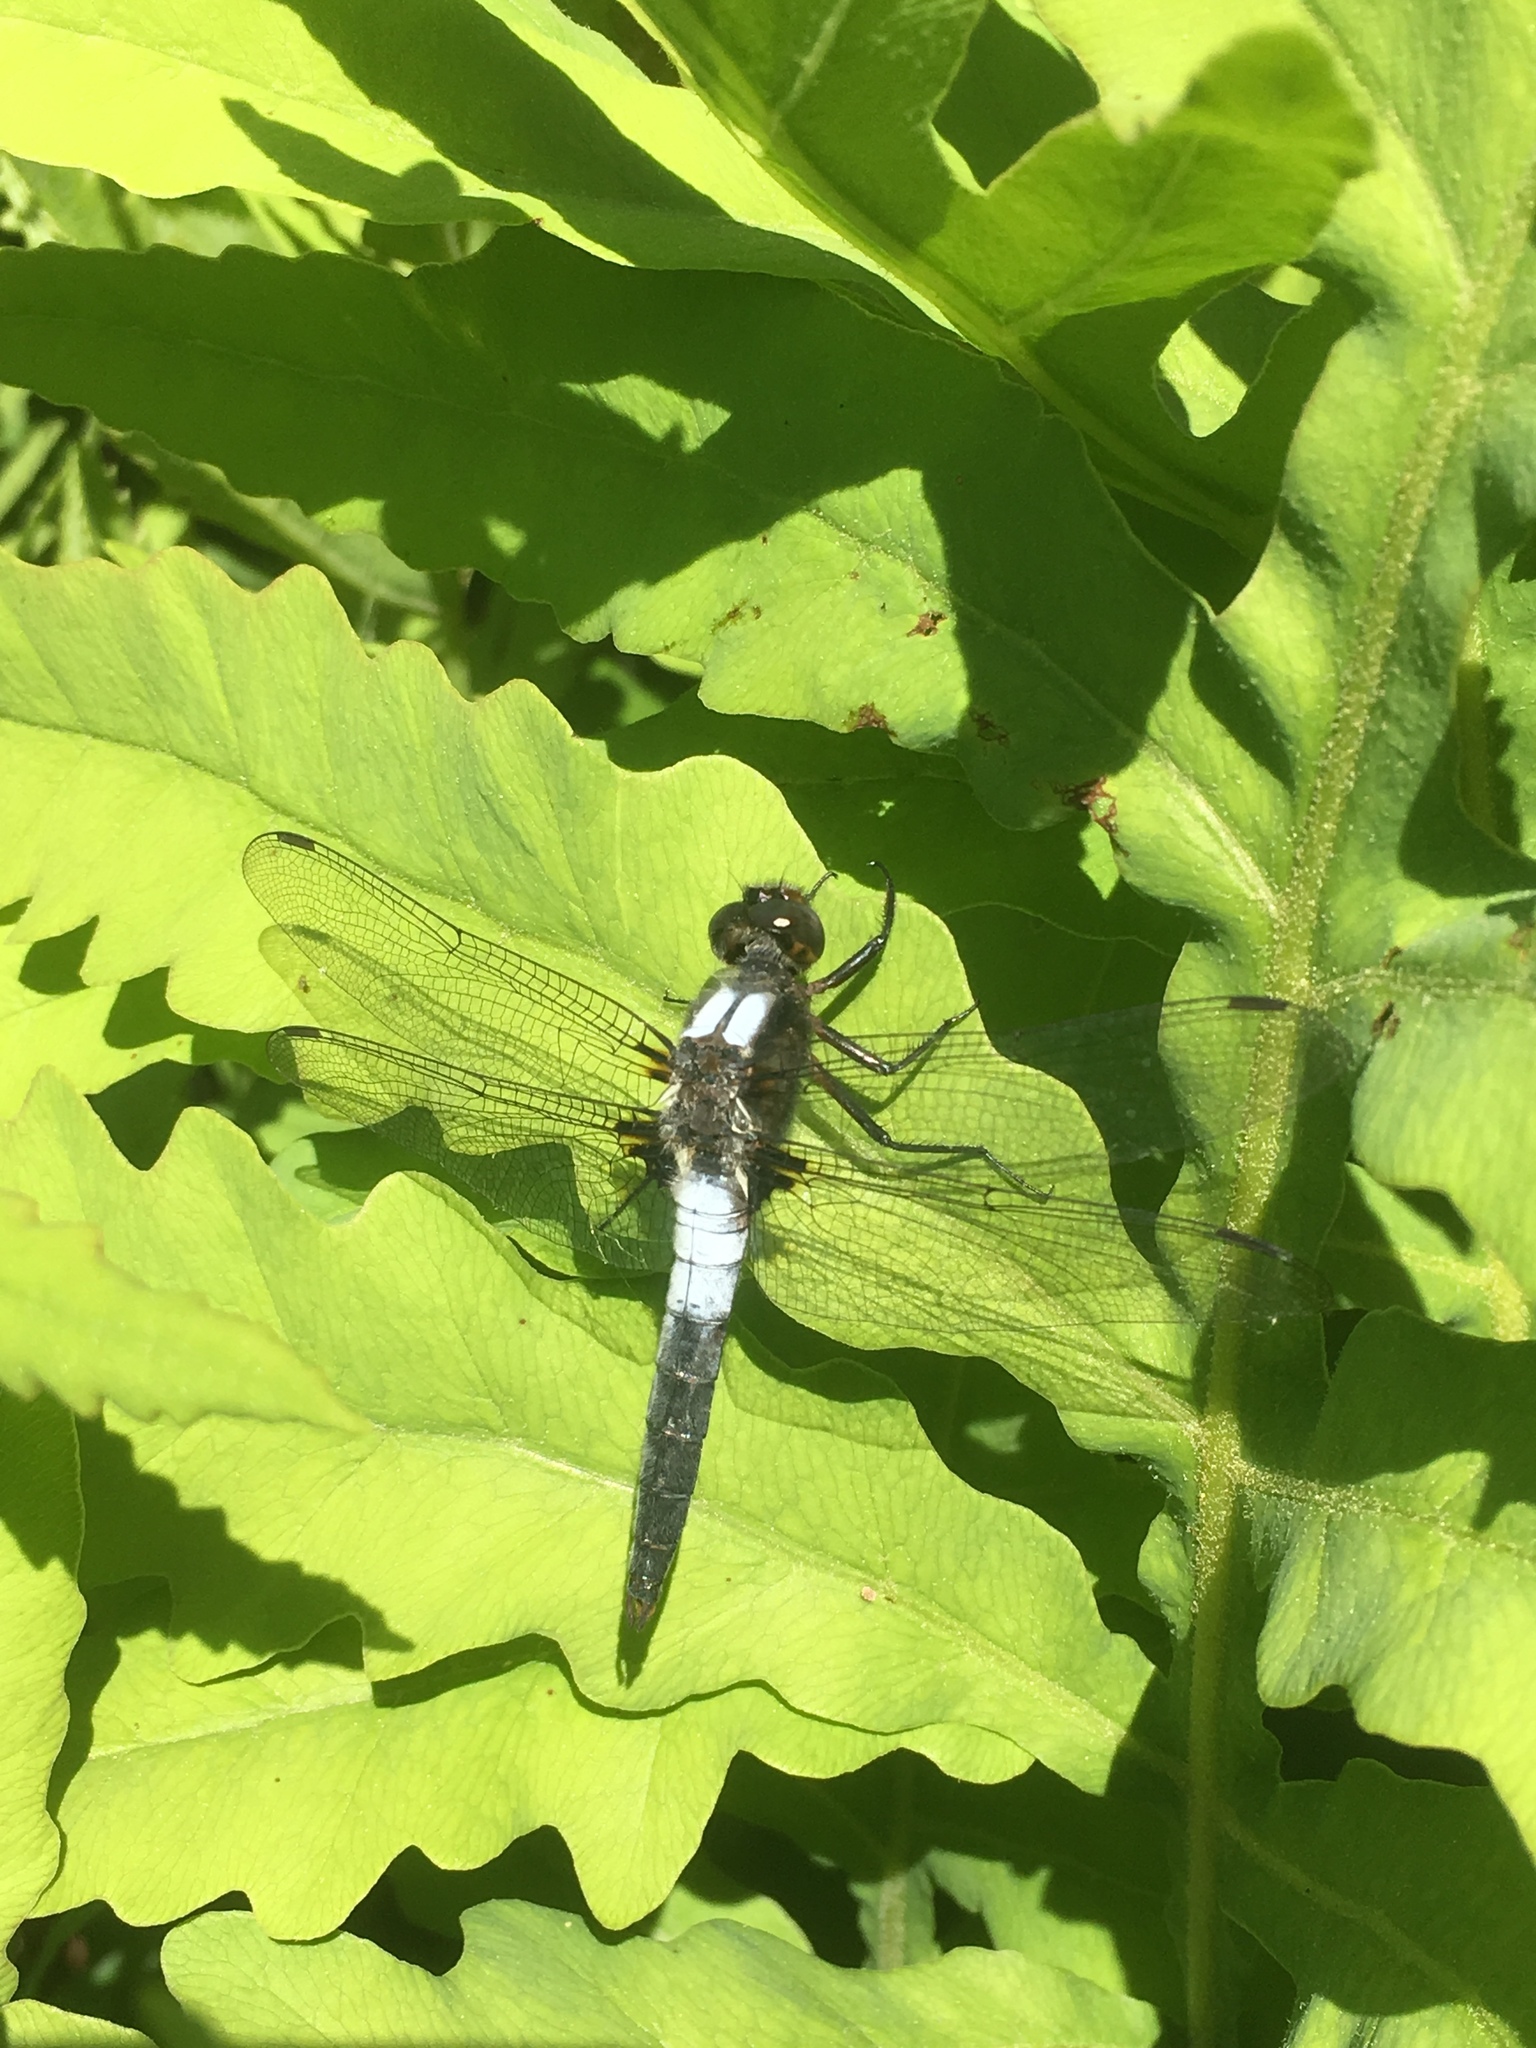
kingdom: Animalia
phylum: Arthropoda
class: Insecta
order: Odonata
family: Libellulidae
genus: Ladona
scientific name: Ladona julia
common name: Chalk-fronted corporal
